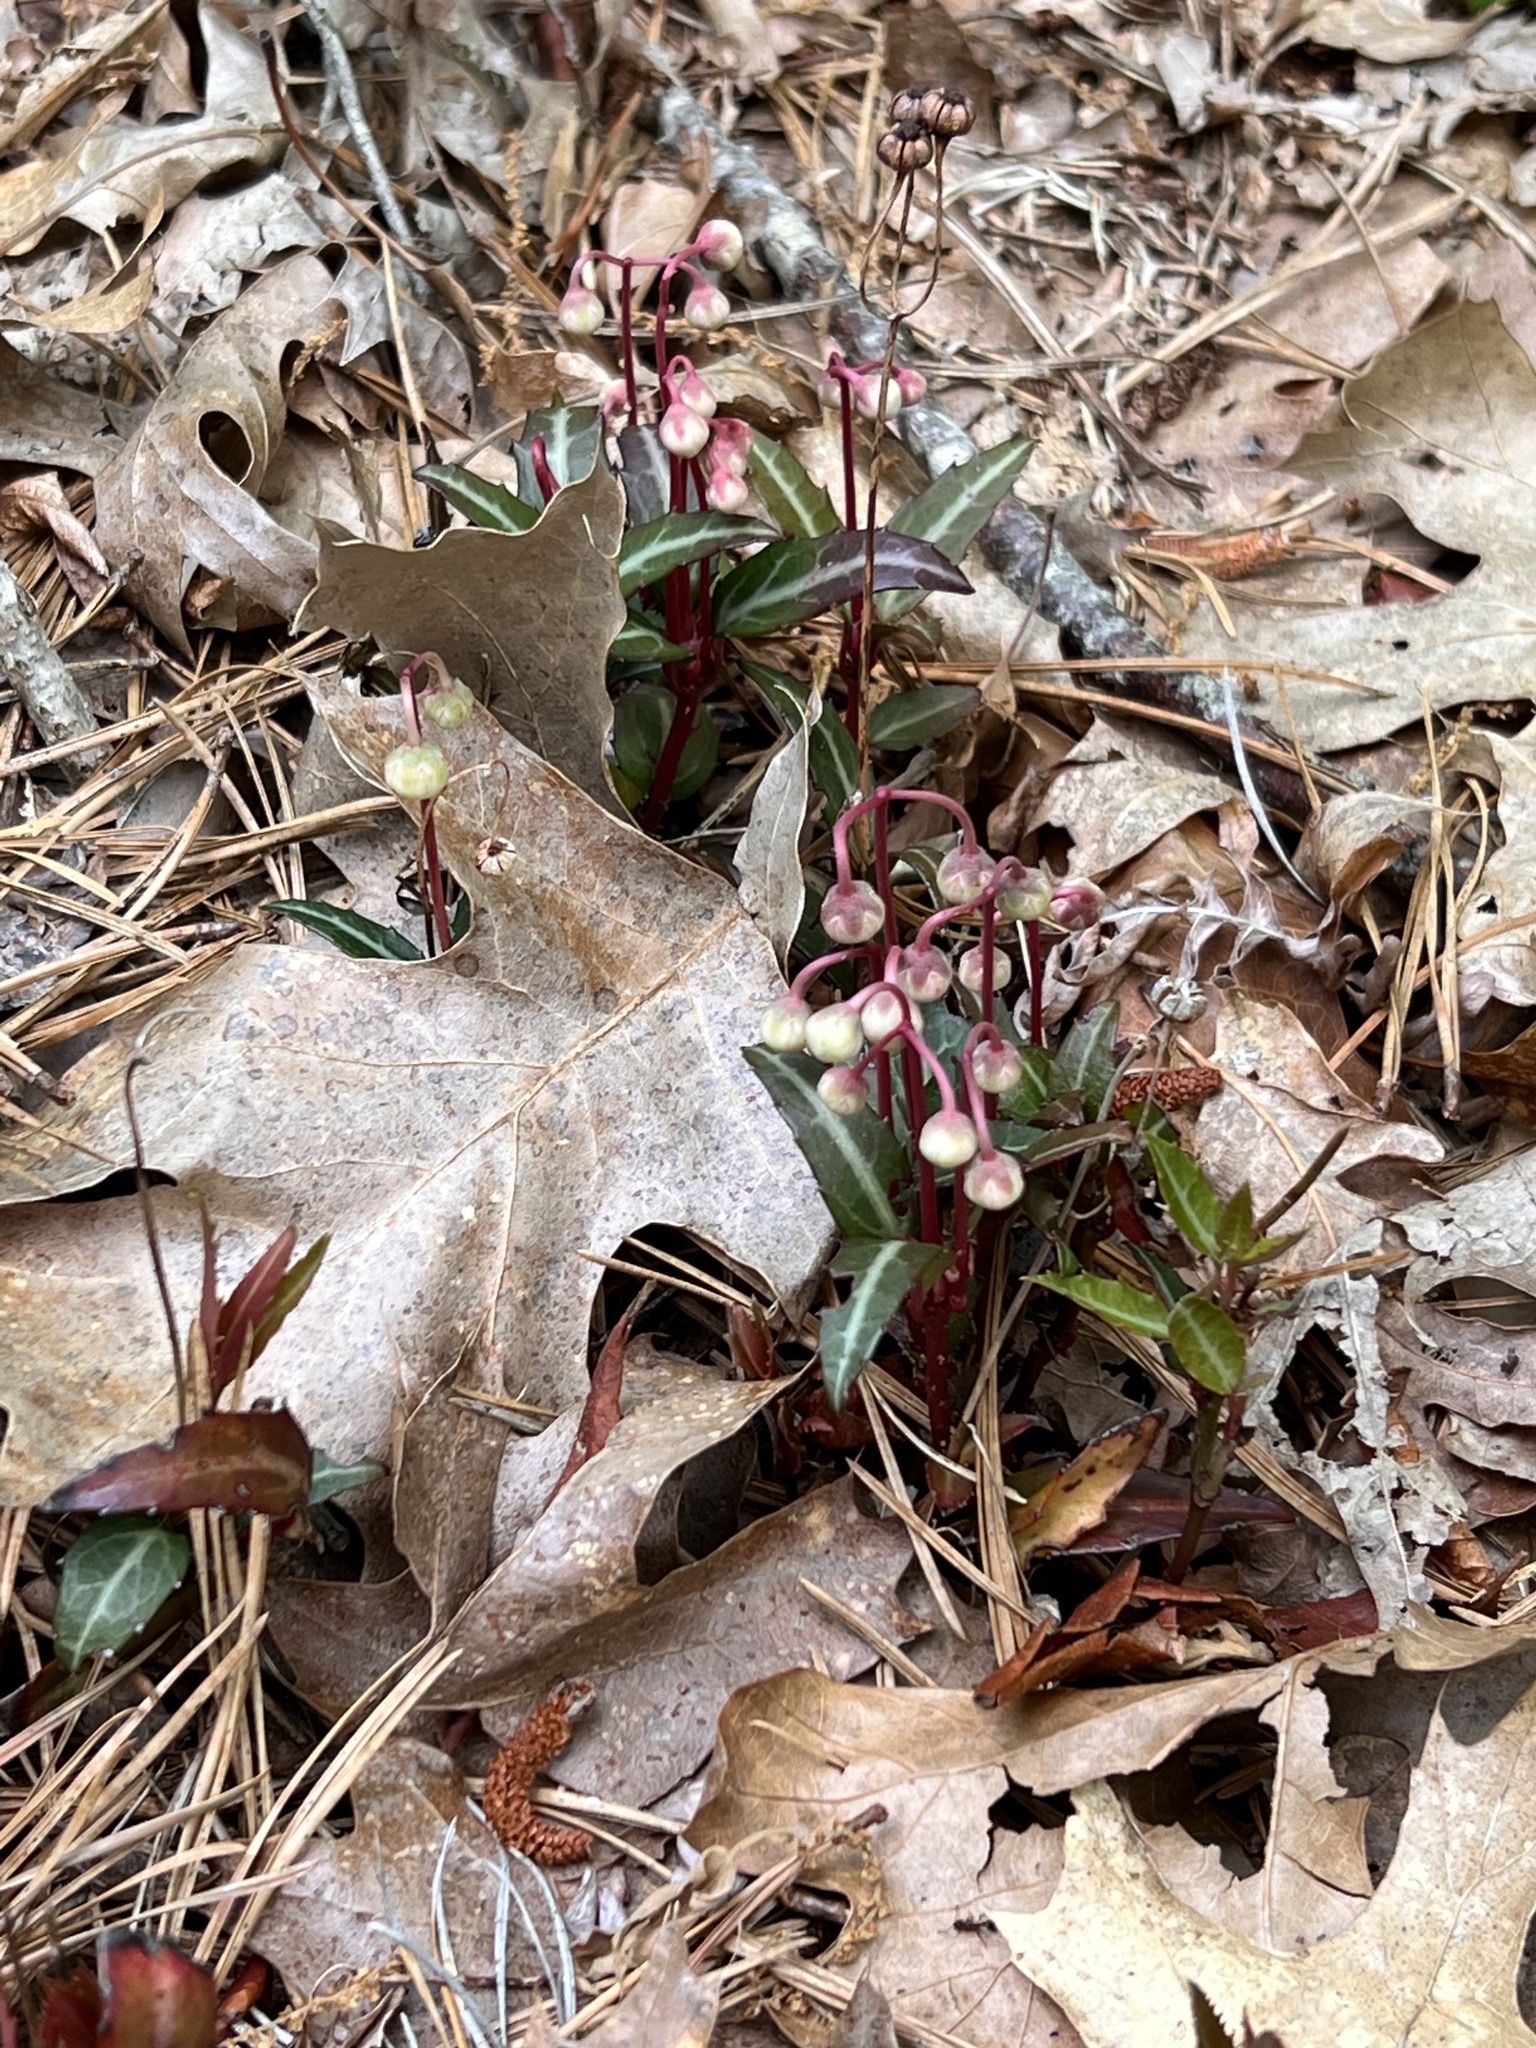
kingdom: Plantae
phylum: Tracheophyta
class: Magnoliopsida
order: Ericales
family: Ericaceae
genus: Chimaphila
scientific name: Chimaphila maculata
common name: Spotted pipsissewa
